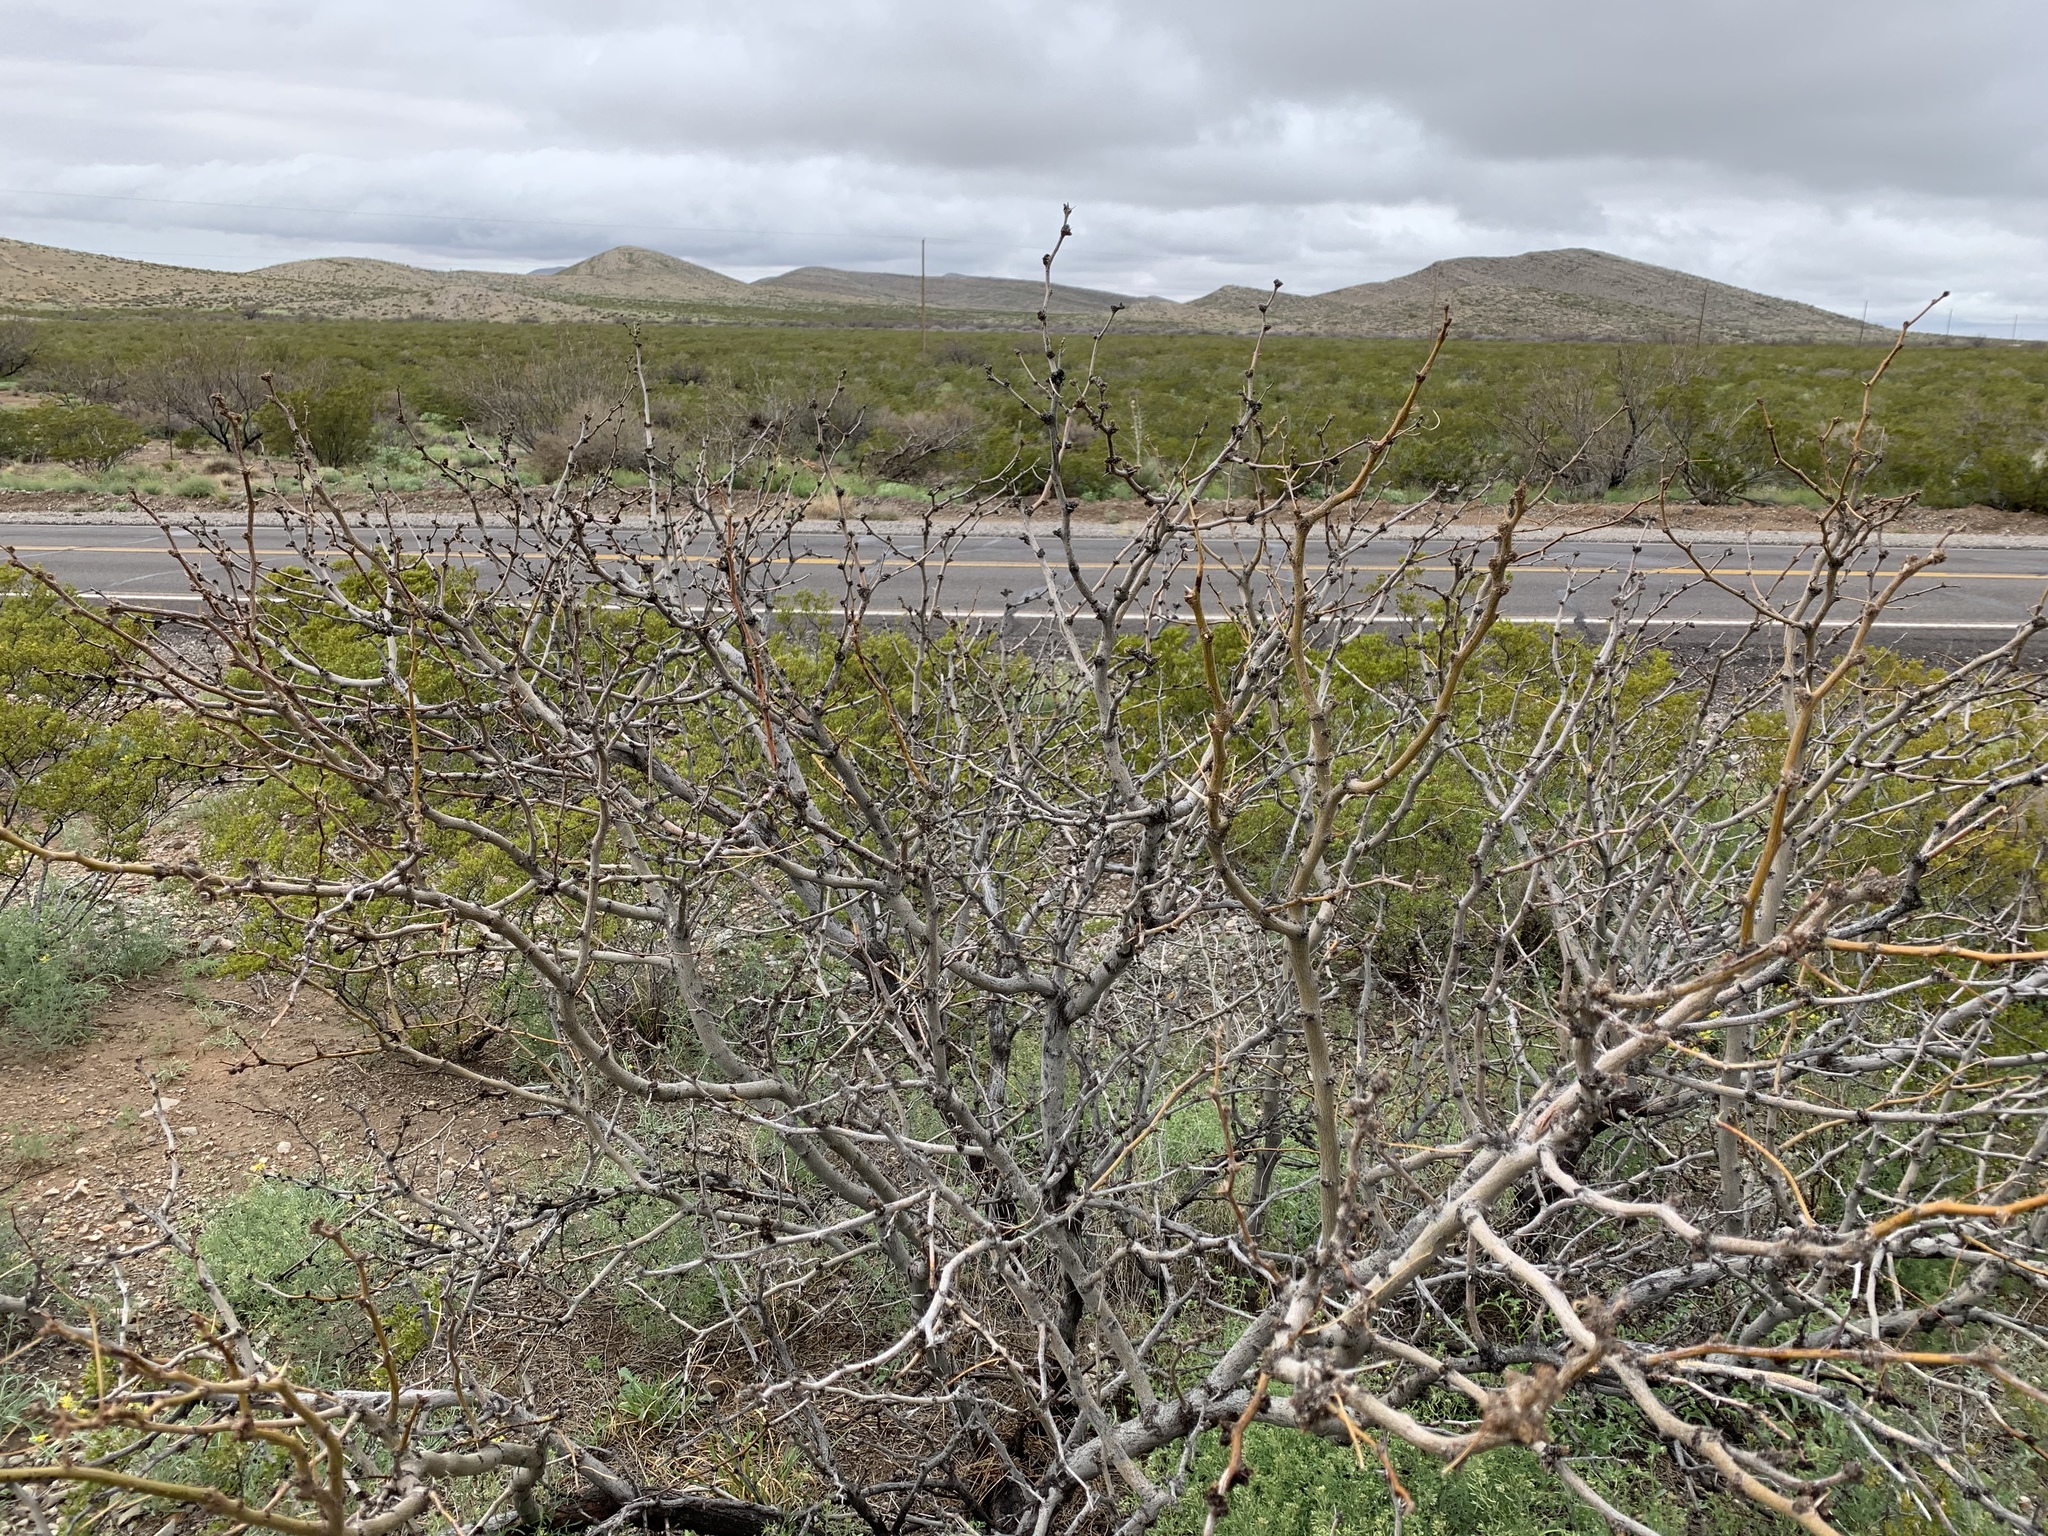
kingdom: Plantae
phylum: Tracheophyta
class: Magnoliopsida
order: Fabales
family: Fabaceae
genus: Prosopis
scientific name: Prosopis glandulosa
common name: Honey mesquite
